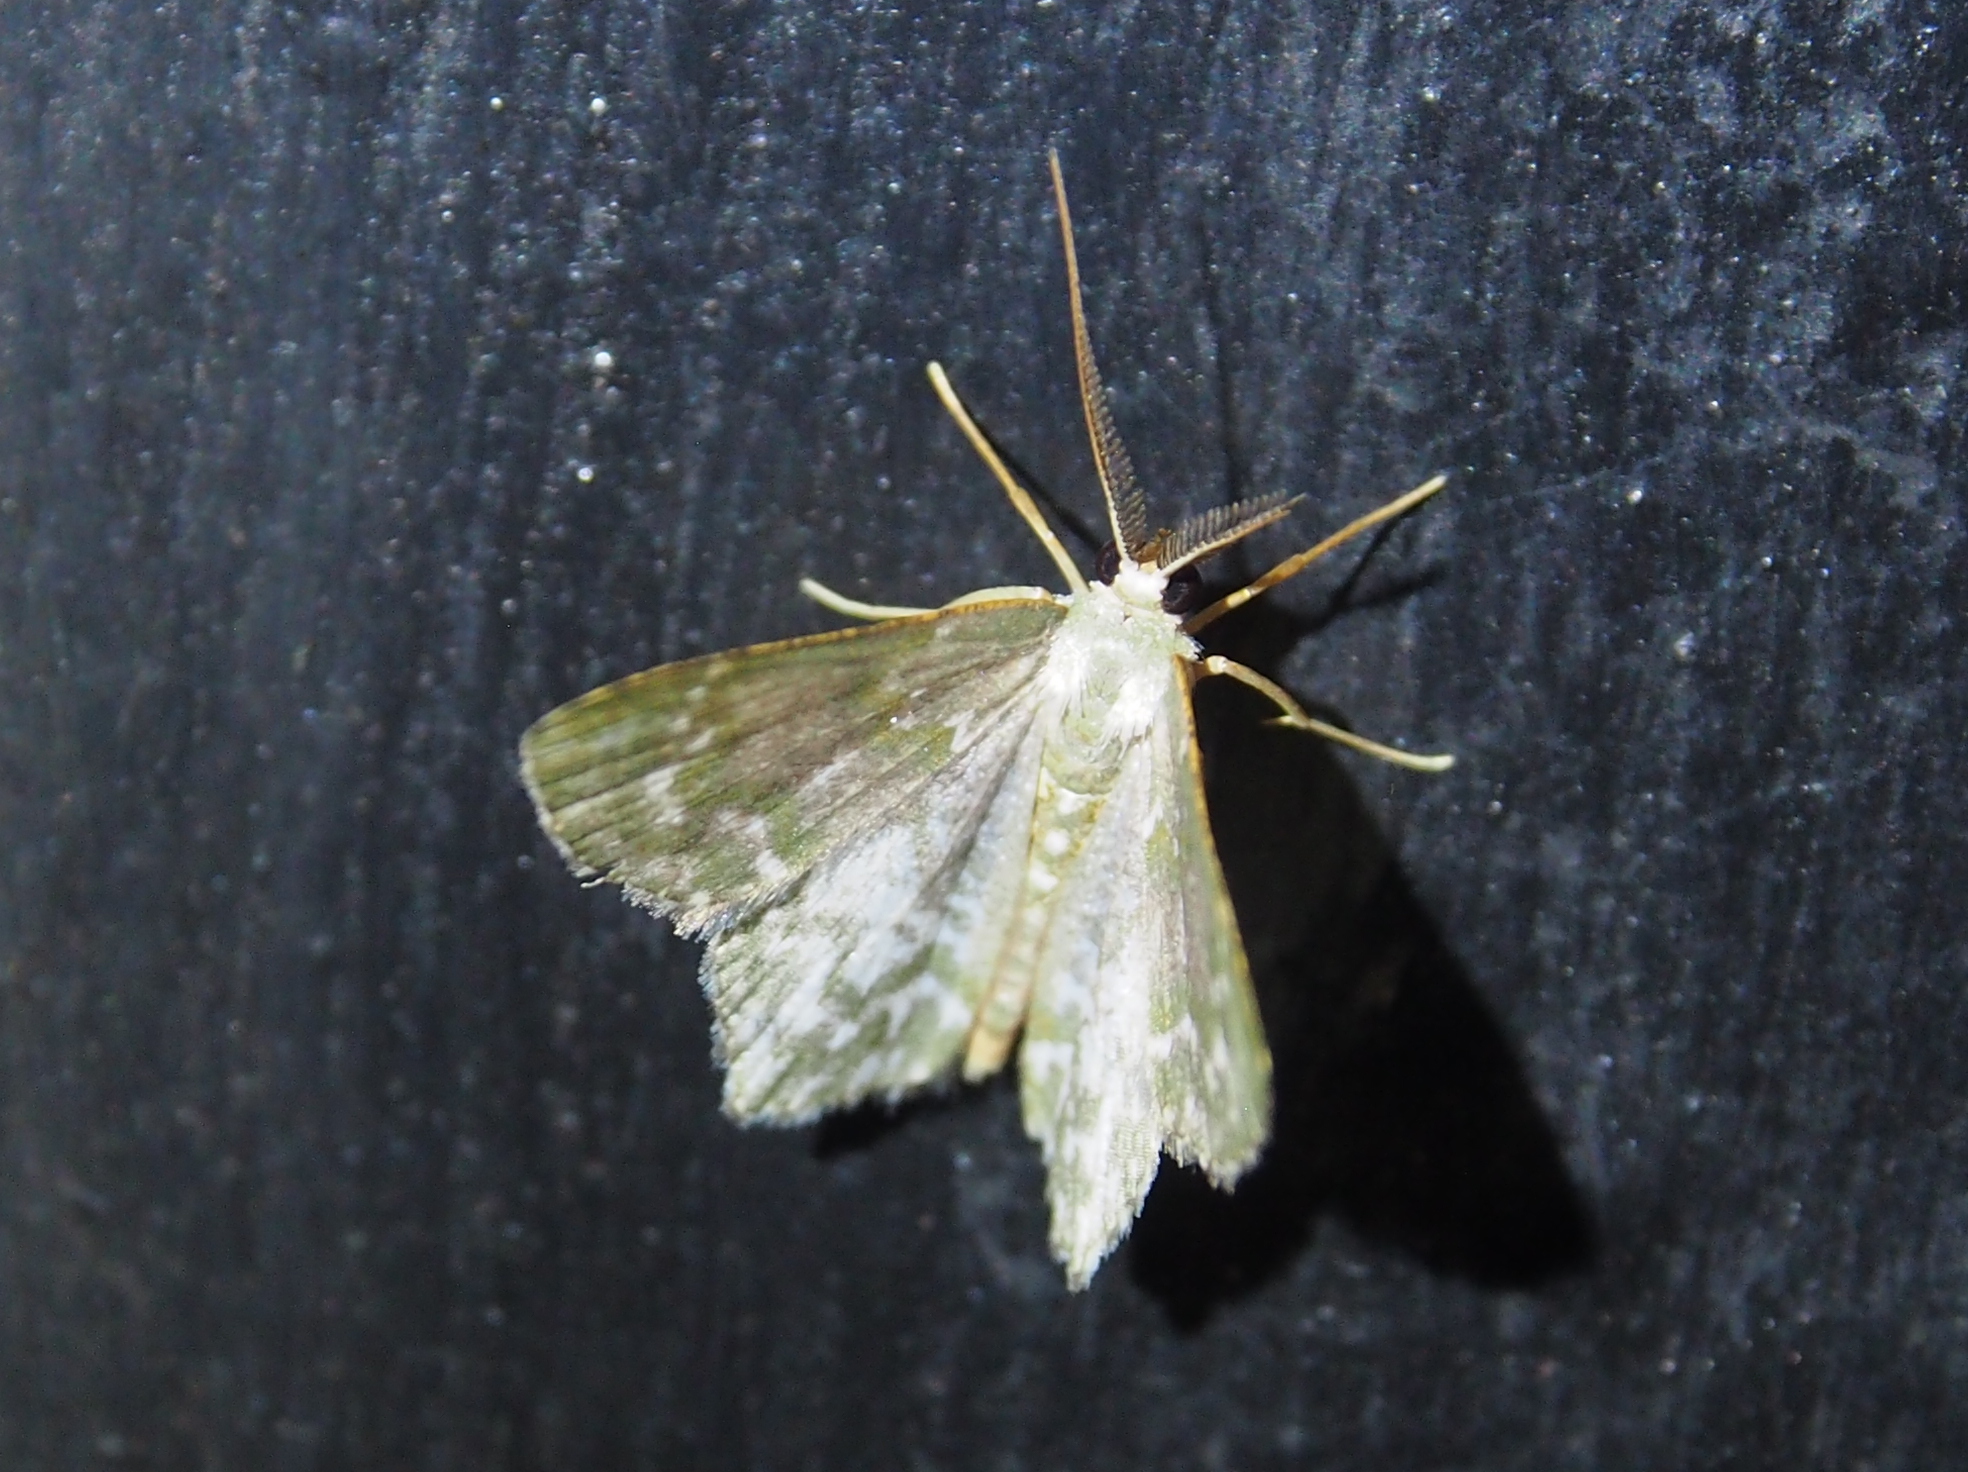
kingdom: Animalia
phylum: Arthropoda
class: Insecta
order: Lepidoptera
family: Geometridae
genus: Chloropteryx
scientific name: Chloropteryx dealbata
